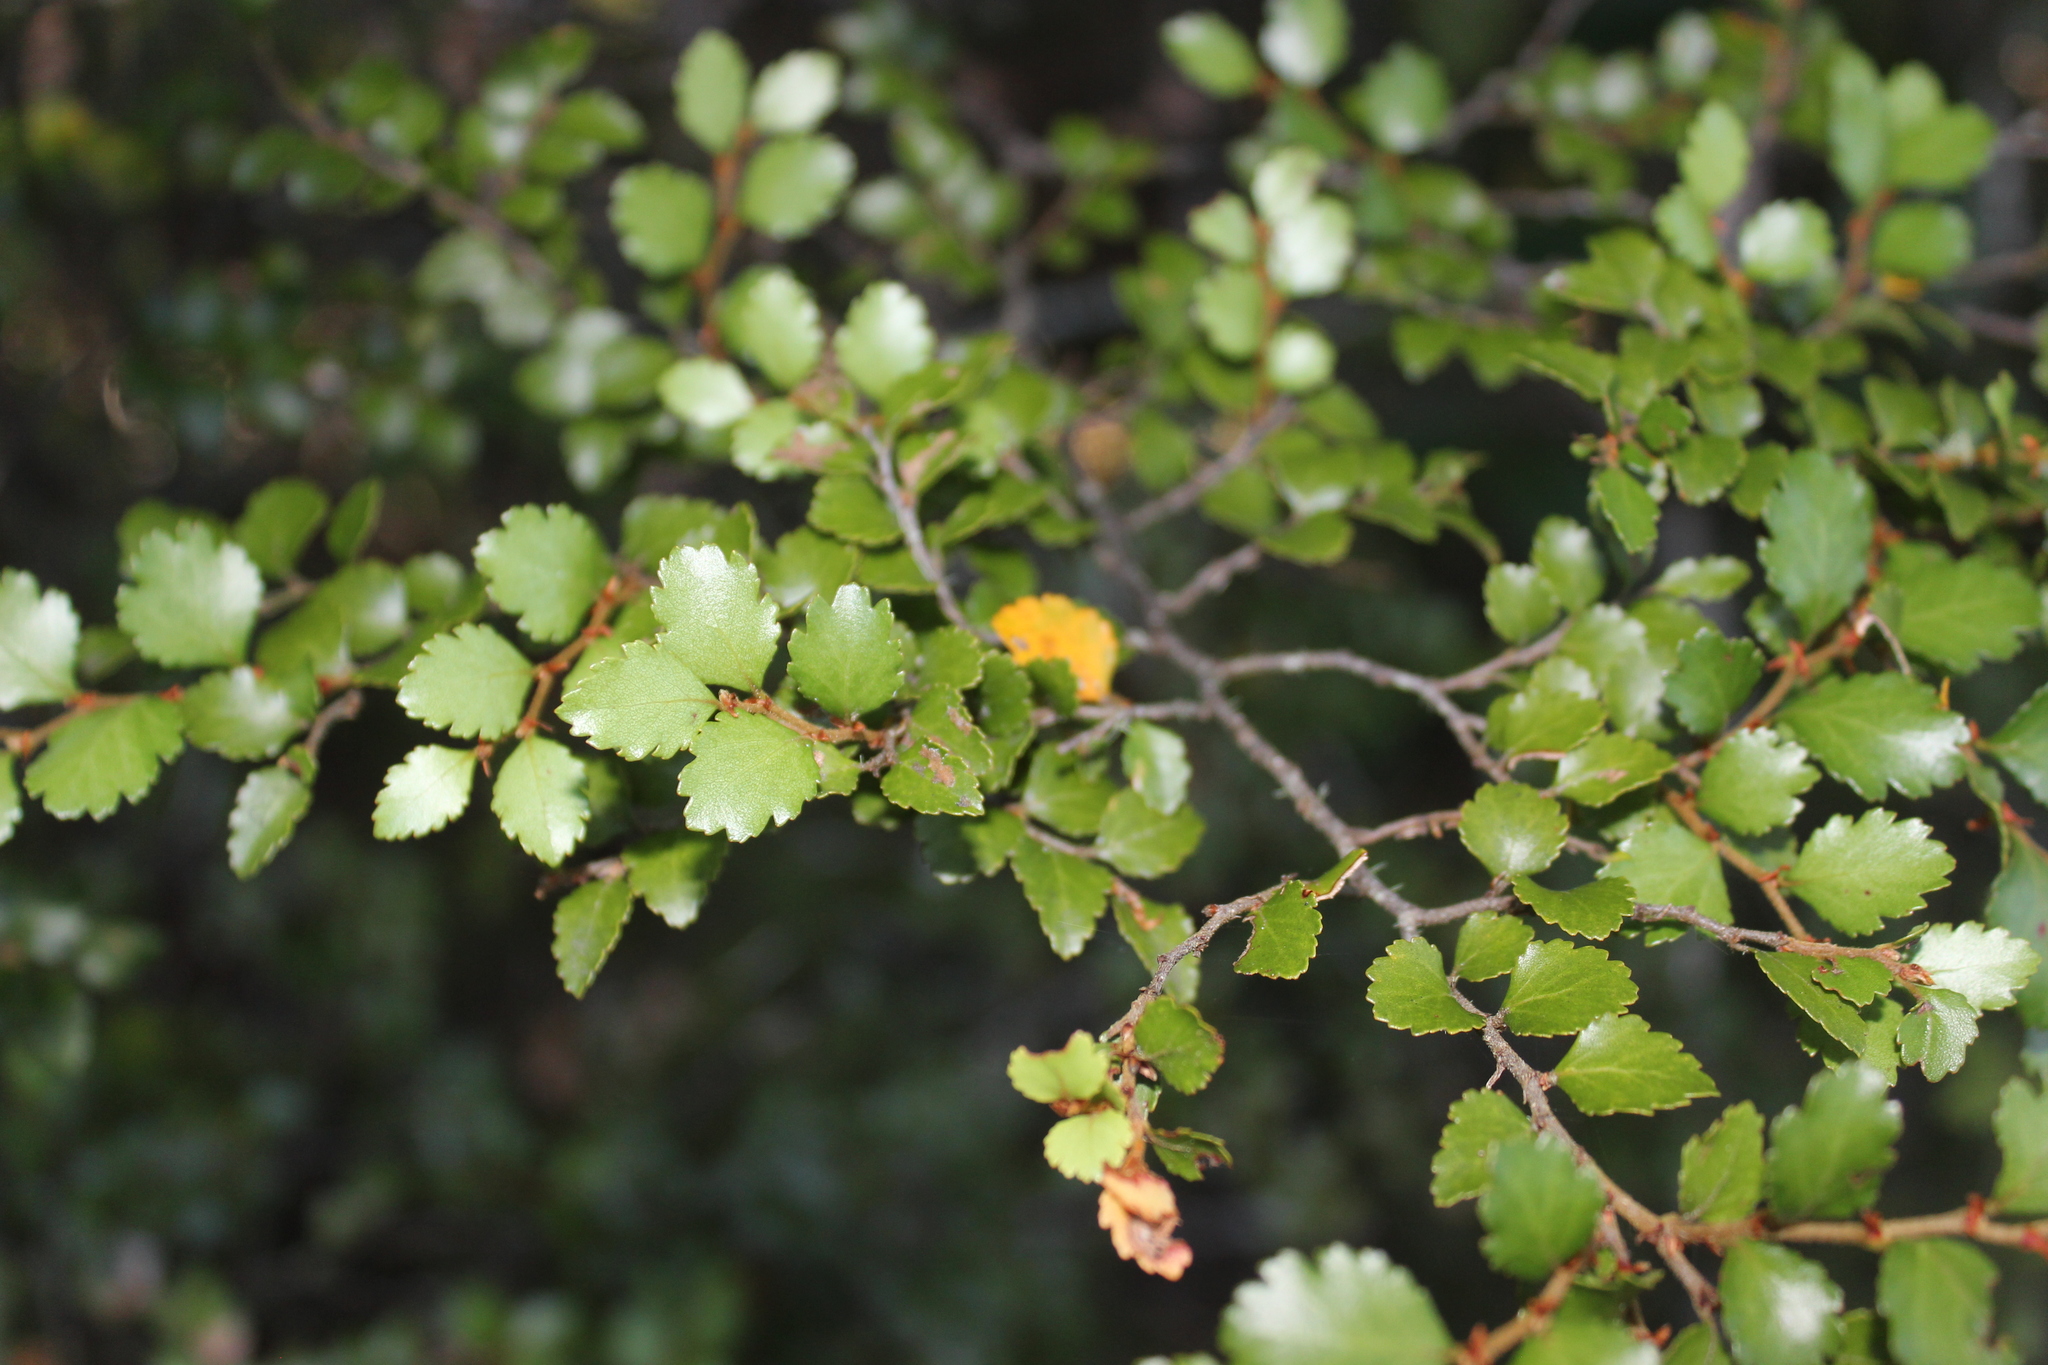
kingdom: Plantae
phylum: Tracheophyta
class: Magnoliopsida
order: Fagales
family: Nothofagaceae
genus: Nothofagus
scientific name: Nothofagus menziesii
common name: Silver beech
